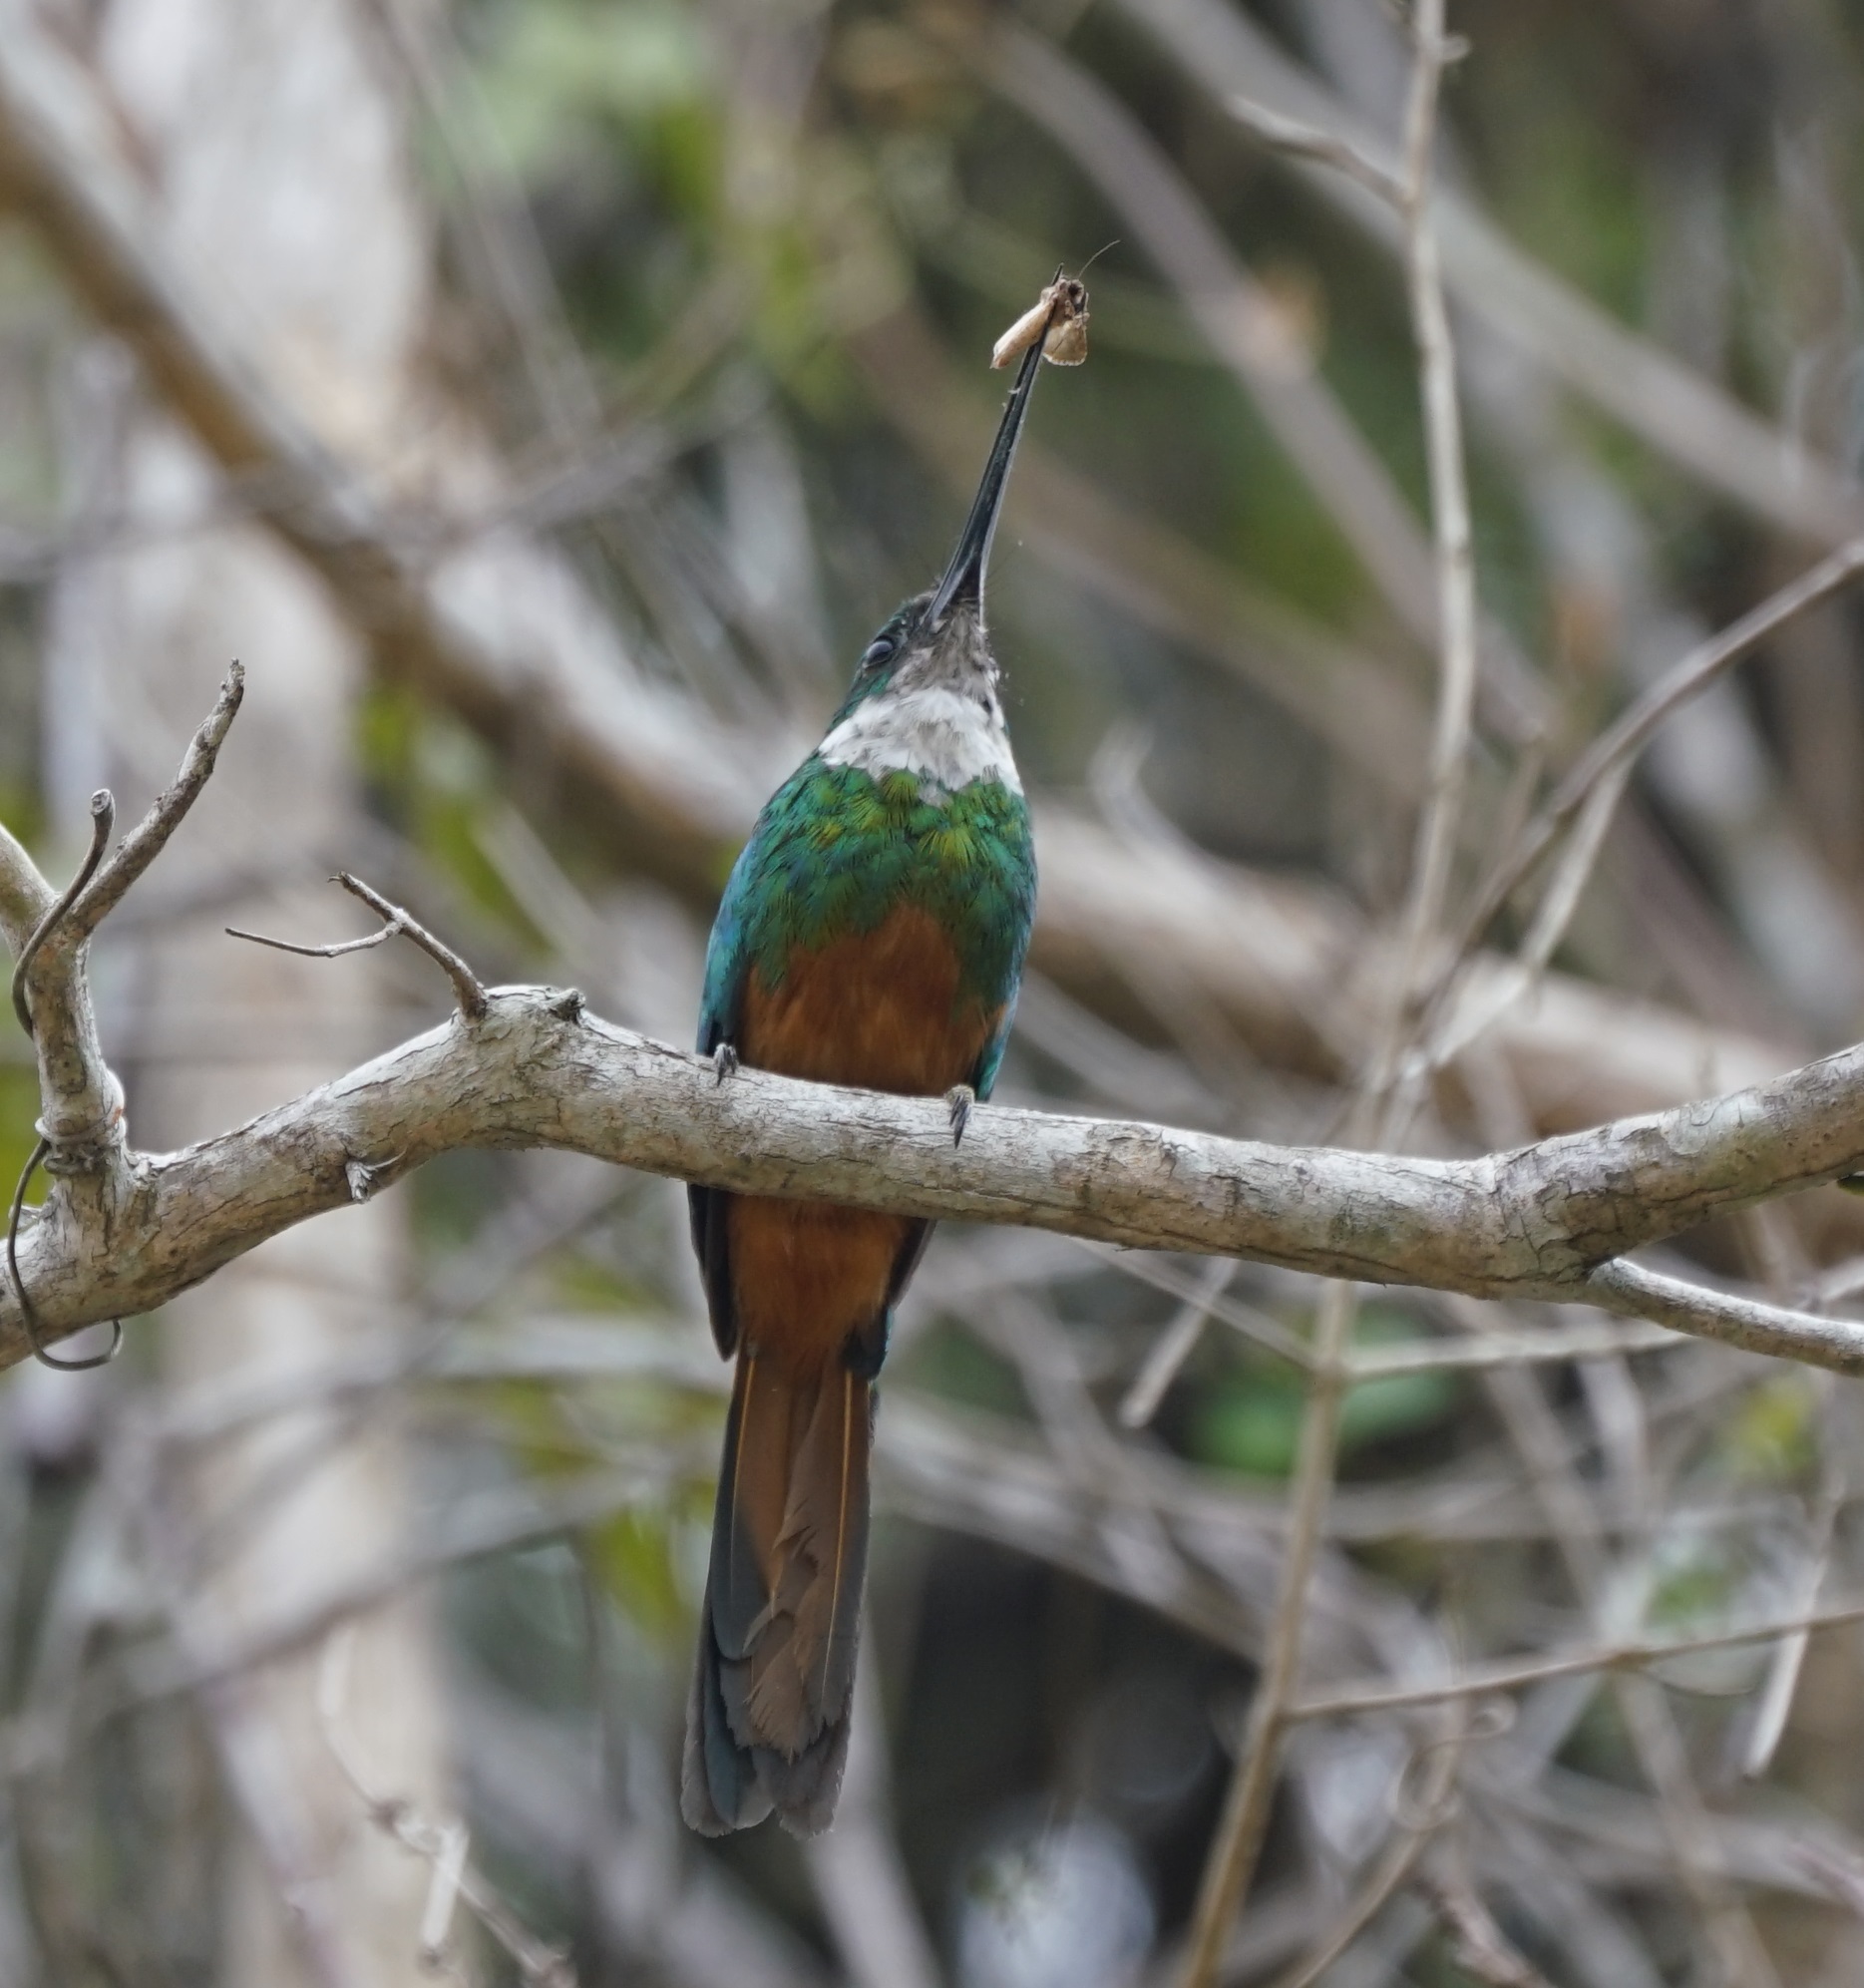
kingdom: Animalia
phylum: Chordata
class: Aves
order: Piciformes
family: Galbulidae
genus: Galbula
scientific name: Galbula ruficauda
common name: Rufous-tailed jacamar
